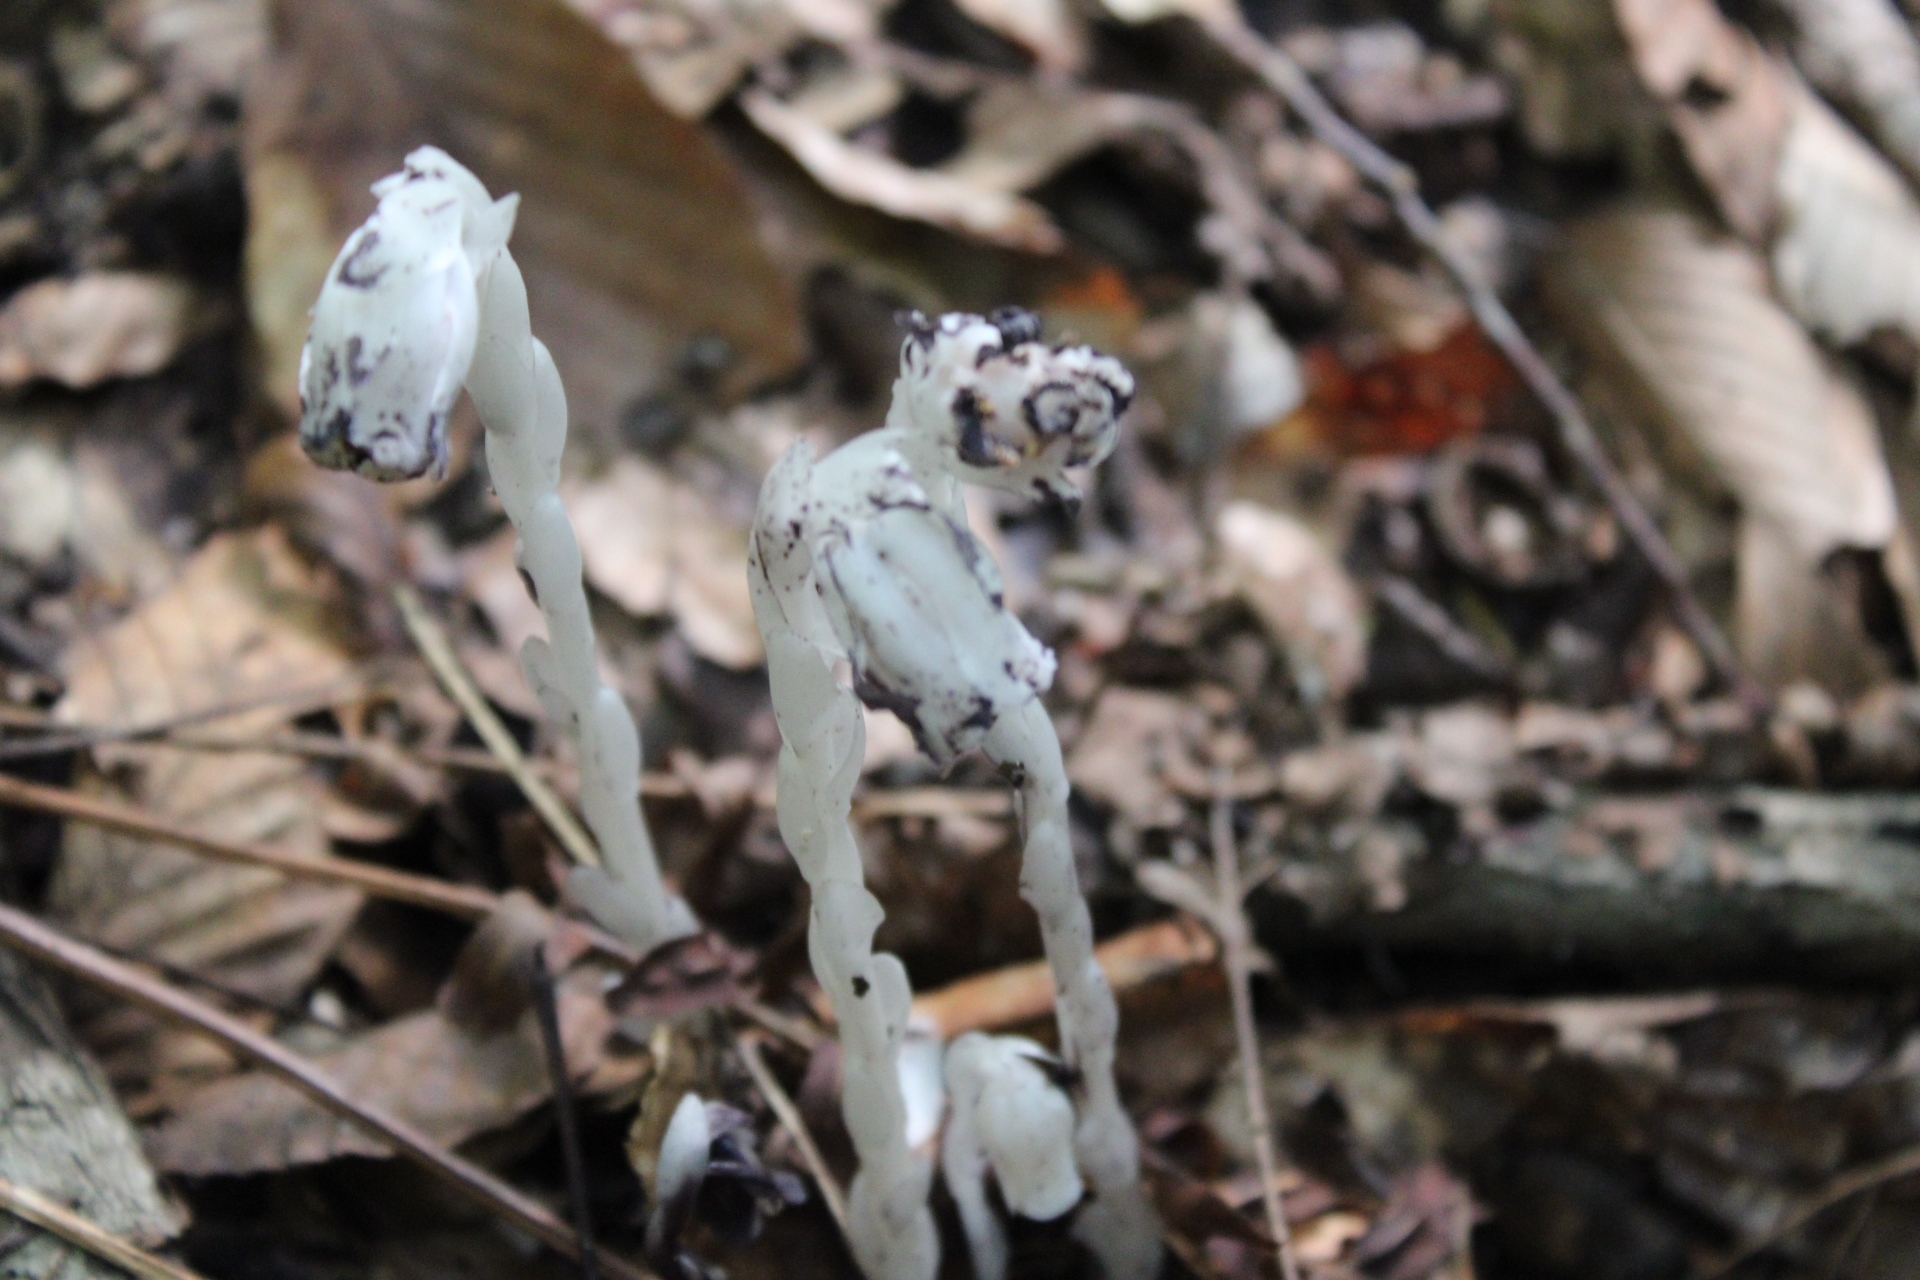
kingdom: Plantae
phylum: Tracheophyta
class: Magnoliopsida
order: Ericales
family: Ericaceae
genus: Monotropa
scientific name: Monotropa uniflora
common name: Convulsion root
